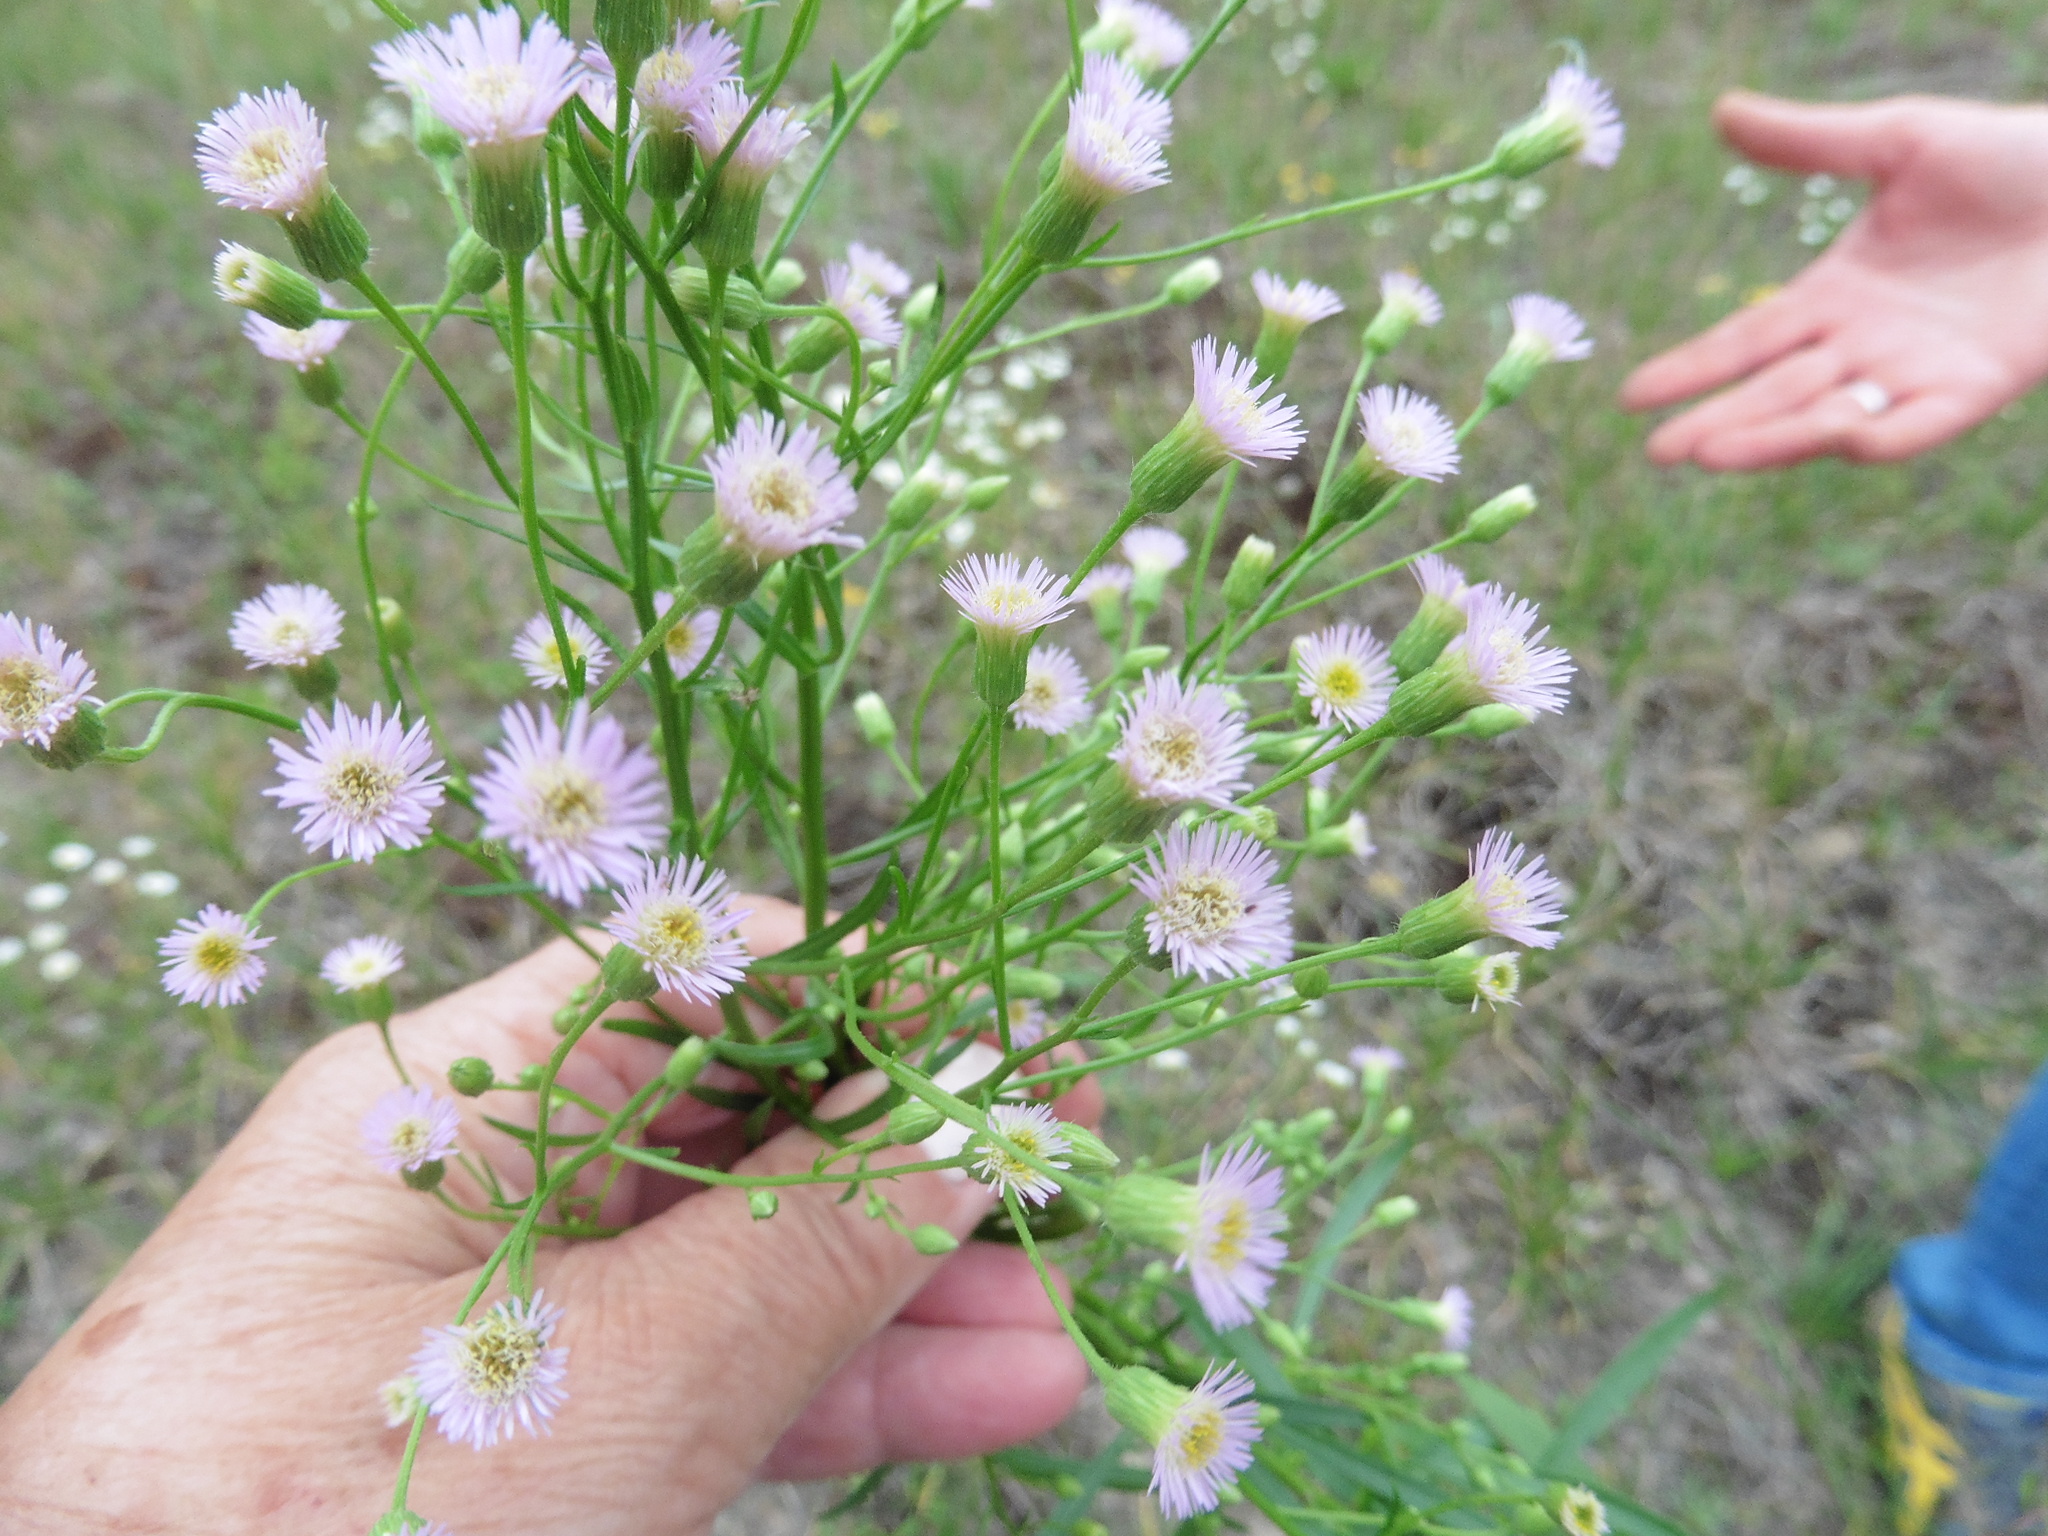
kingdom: Plantae
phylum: Tracheophyta
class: Magnoliopsida
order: Asterales
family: Asteraceae
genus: Erigeron
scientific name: Erigeron acris
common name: Blue fleabane
